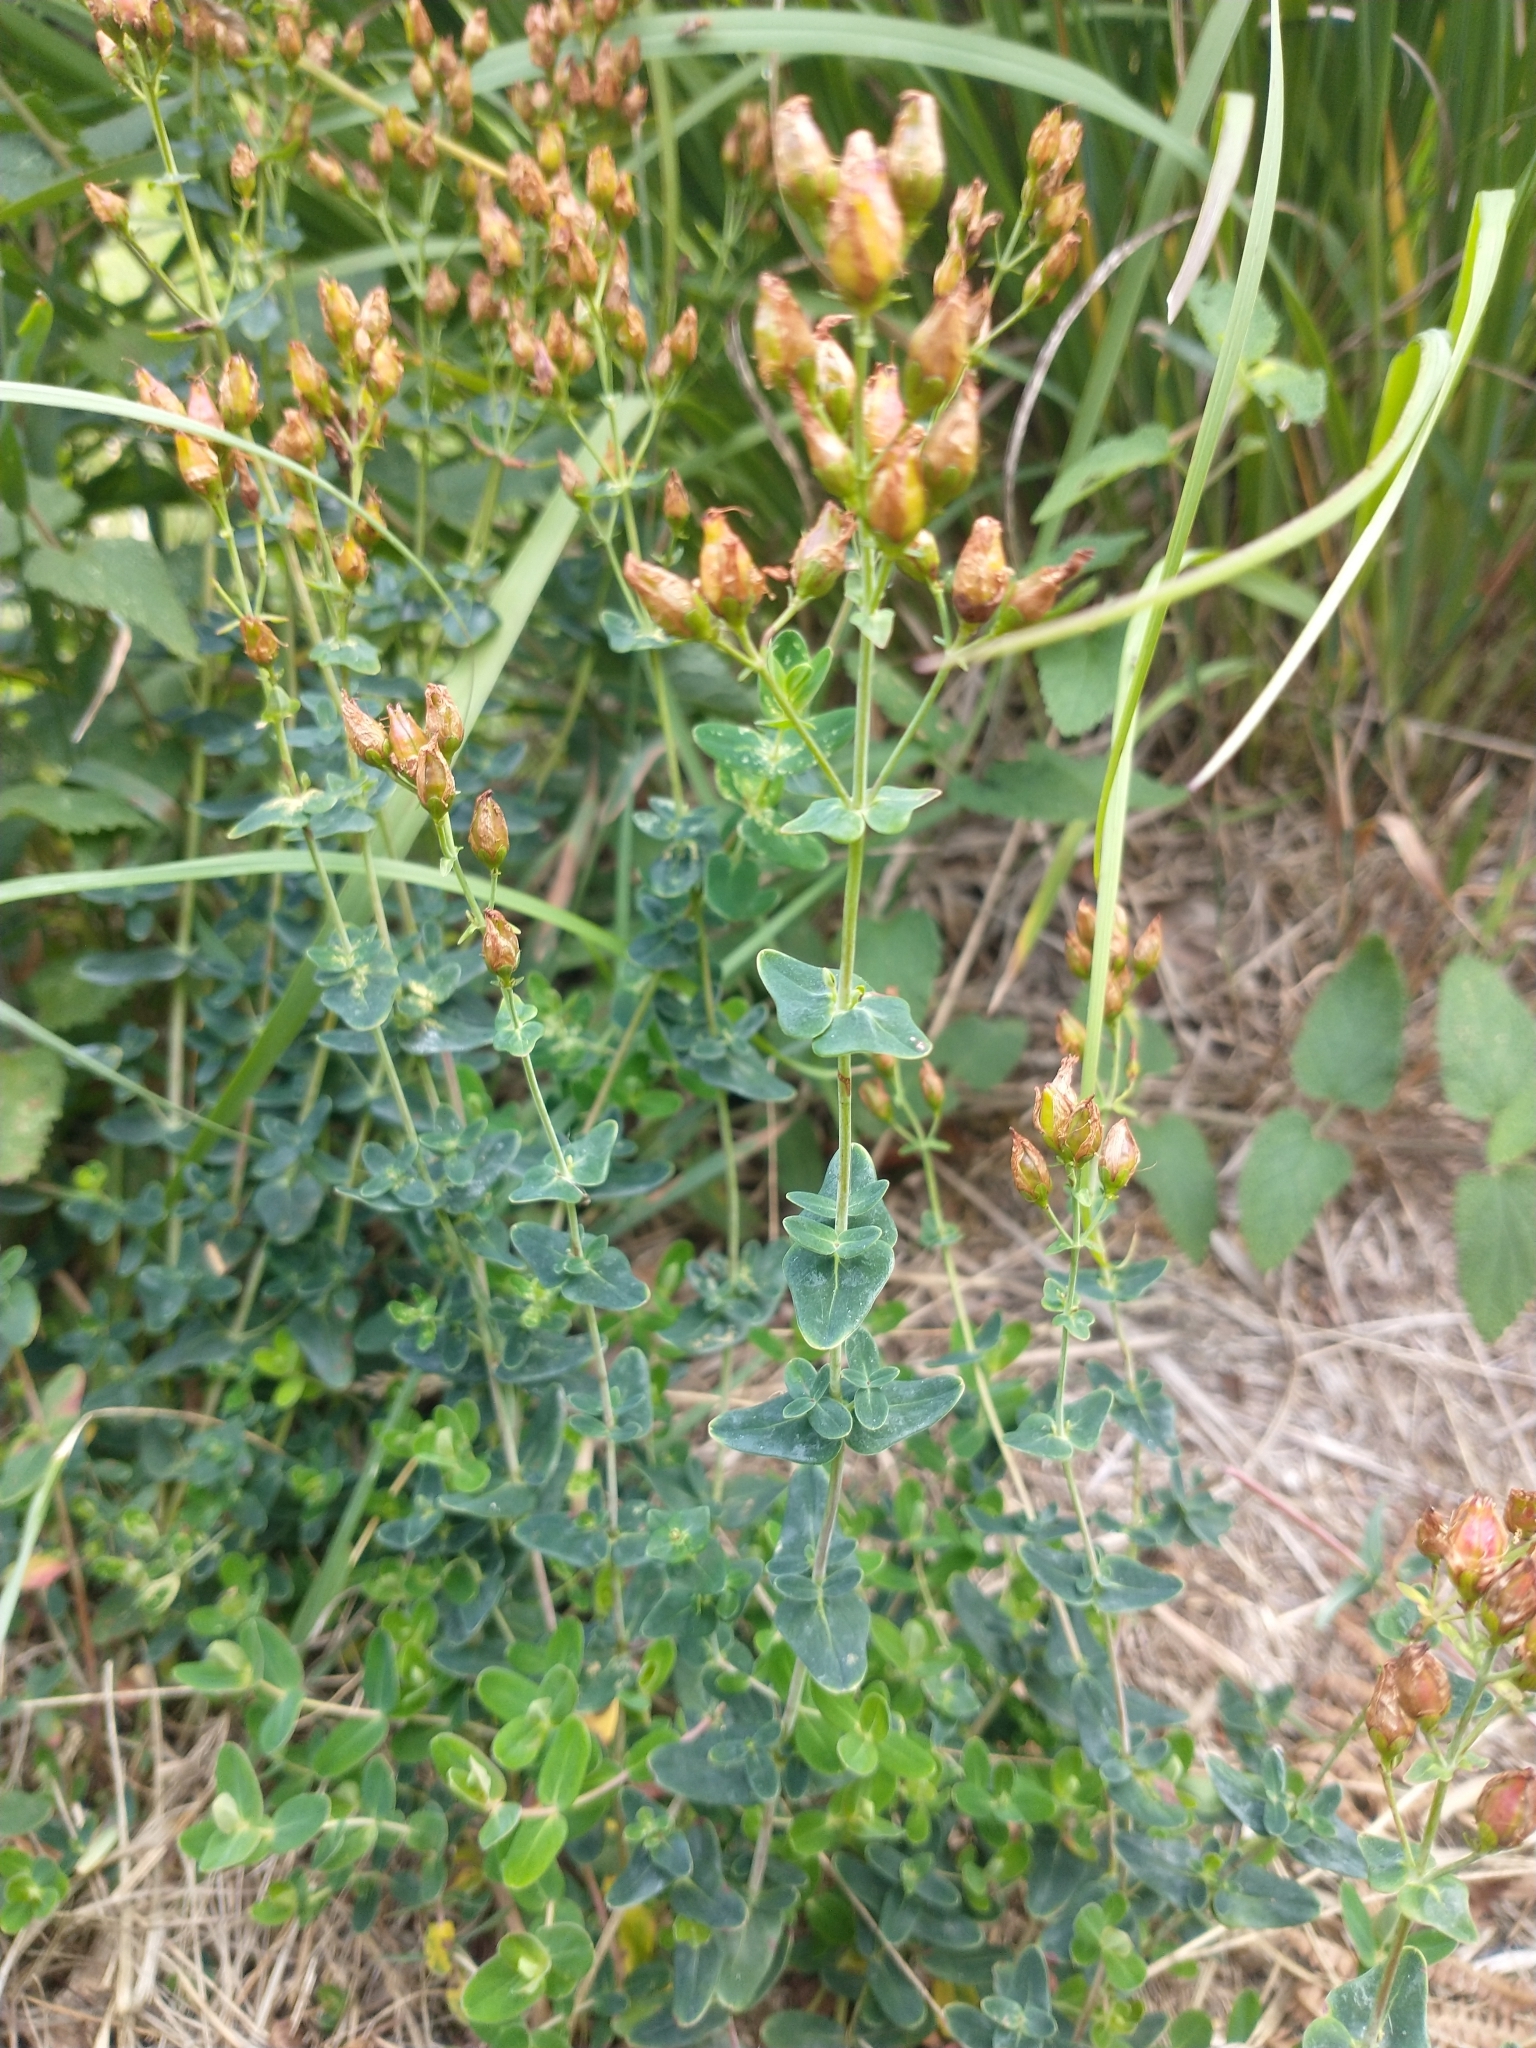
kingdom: Plantae
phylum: Tracheophyta
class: Magnoliopsida
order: Malpighiales
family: Hypericaceae
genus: Hypericum
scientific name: Hypericum pulchrum
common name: Slender st. john's-wort
